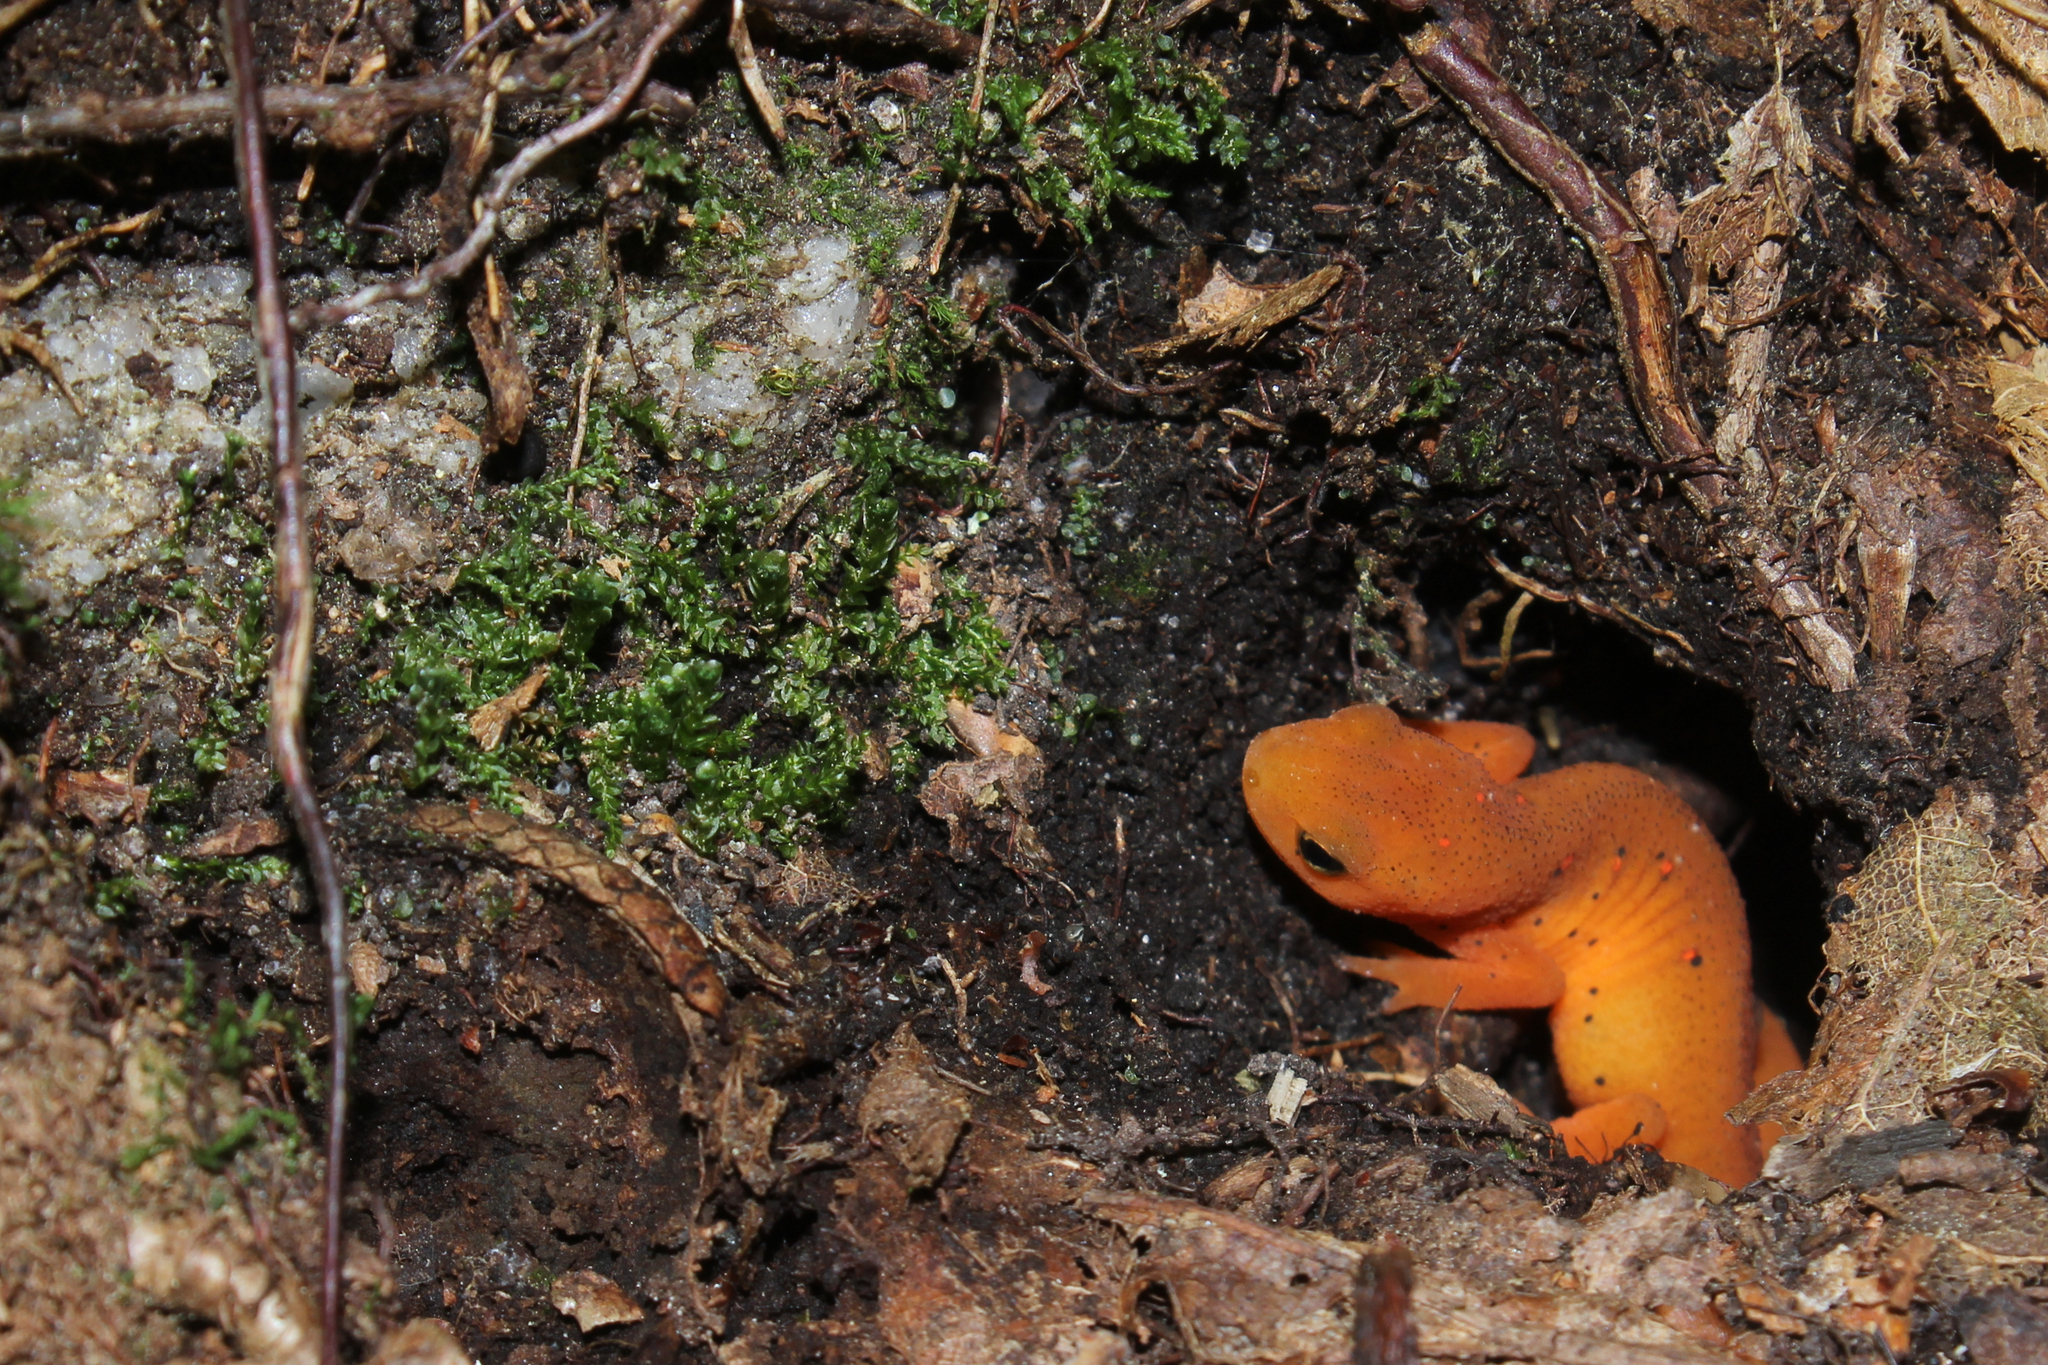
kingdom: Animalia
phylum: Chordata
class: Amphibia
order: Caudata
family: Salamandridae
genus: Notophthalmus
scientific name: Notophthalmus viridescens
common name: Eastern newt
